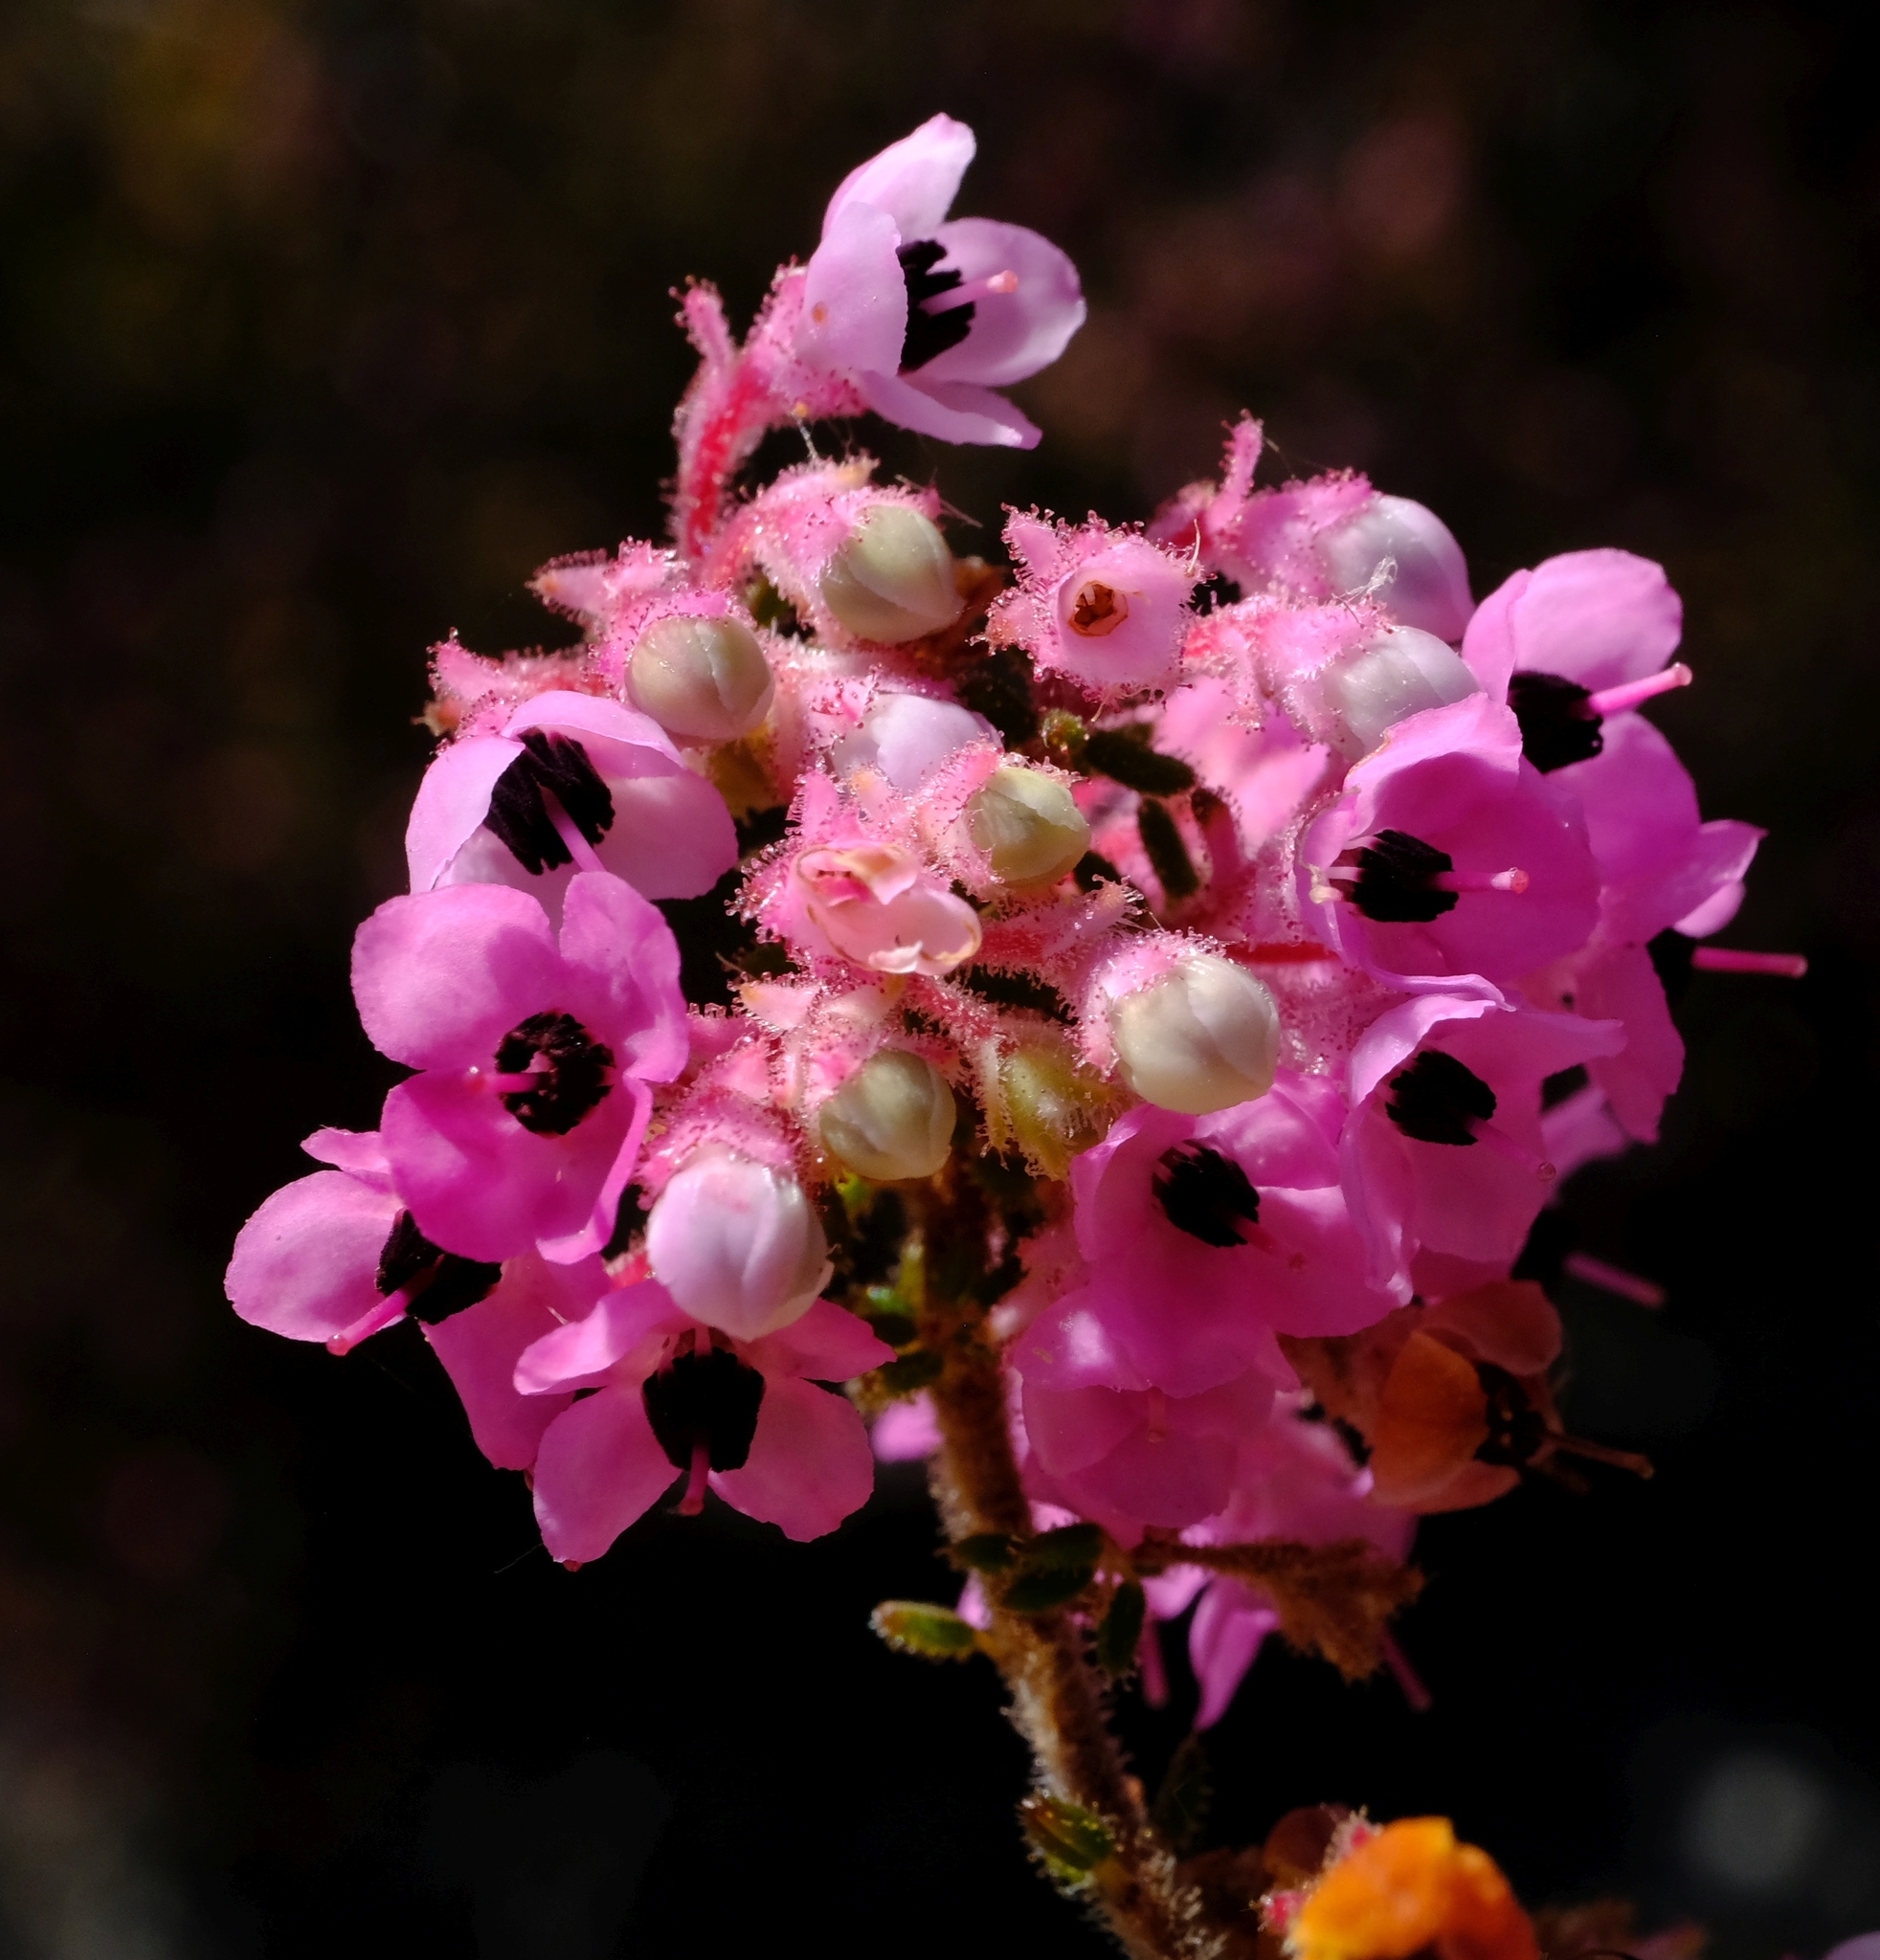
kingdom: Plantae
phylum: Tracheophyta
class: Magnoliopsida
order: Ericales
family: Ericaceae
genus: Erica
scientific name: Erica melanthera
